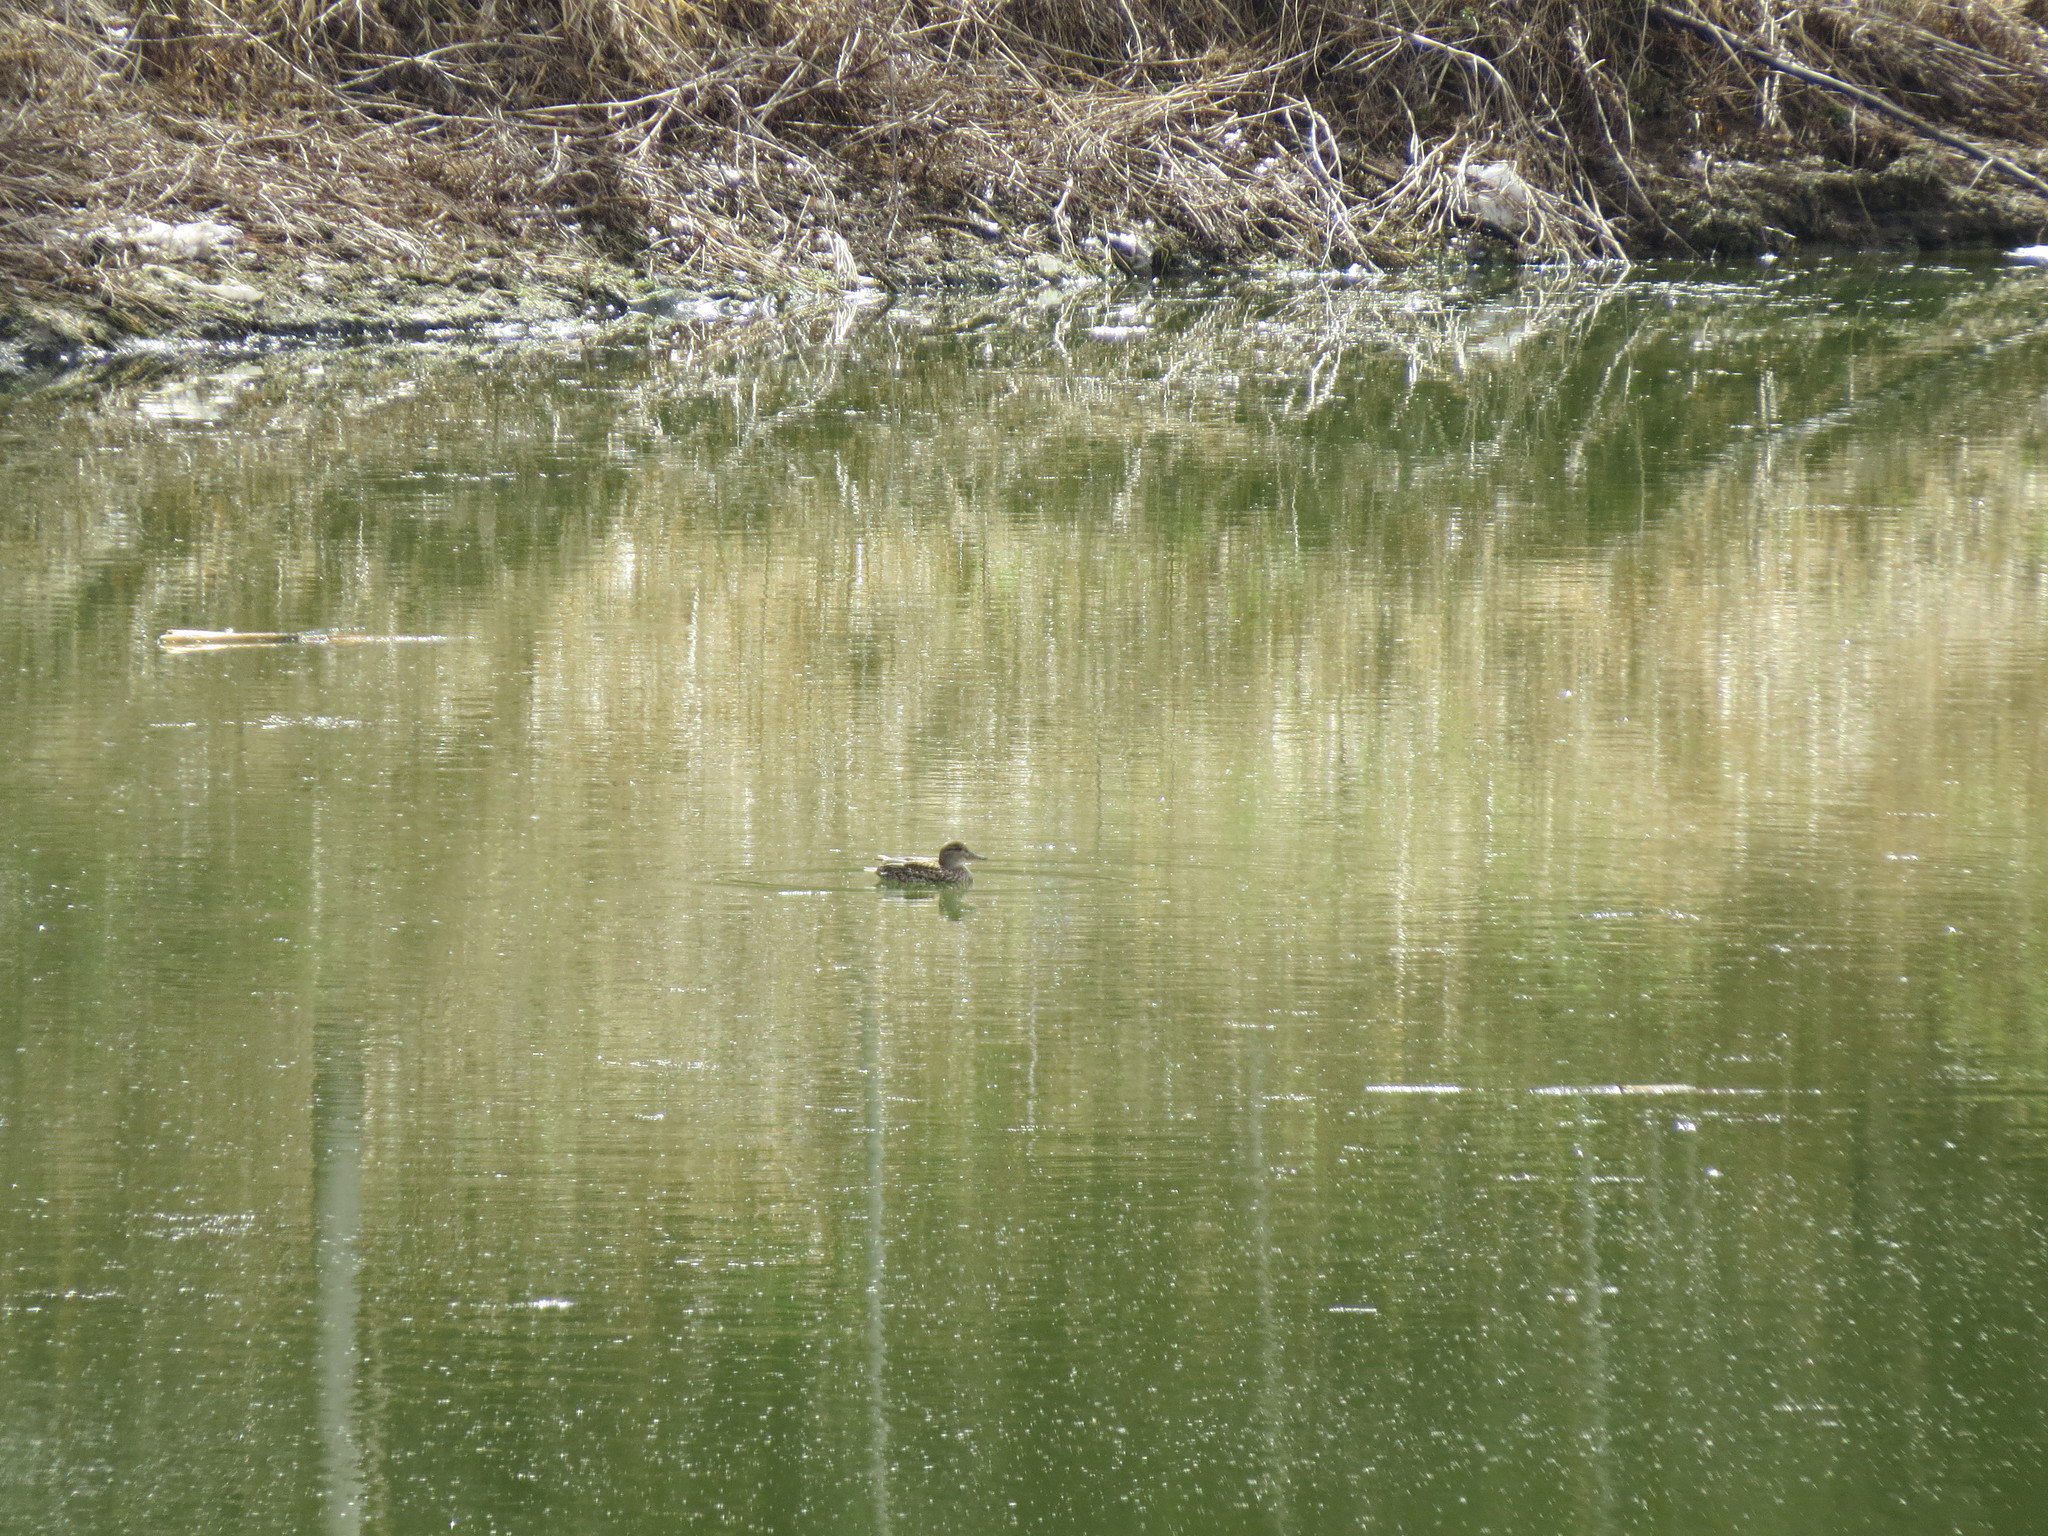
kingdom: Animalia
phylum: Chordata
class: Aves
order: Anseriformes
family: Anatidae
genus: Anas
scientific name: Anas crecca
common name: Eurasian teal
